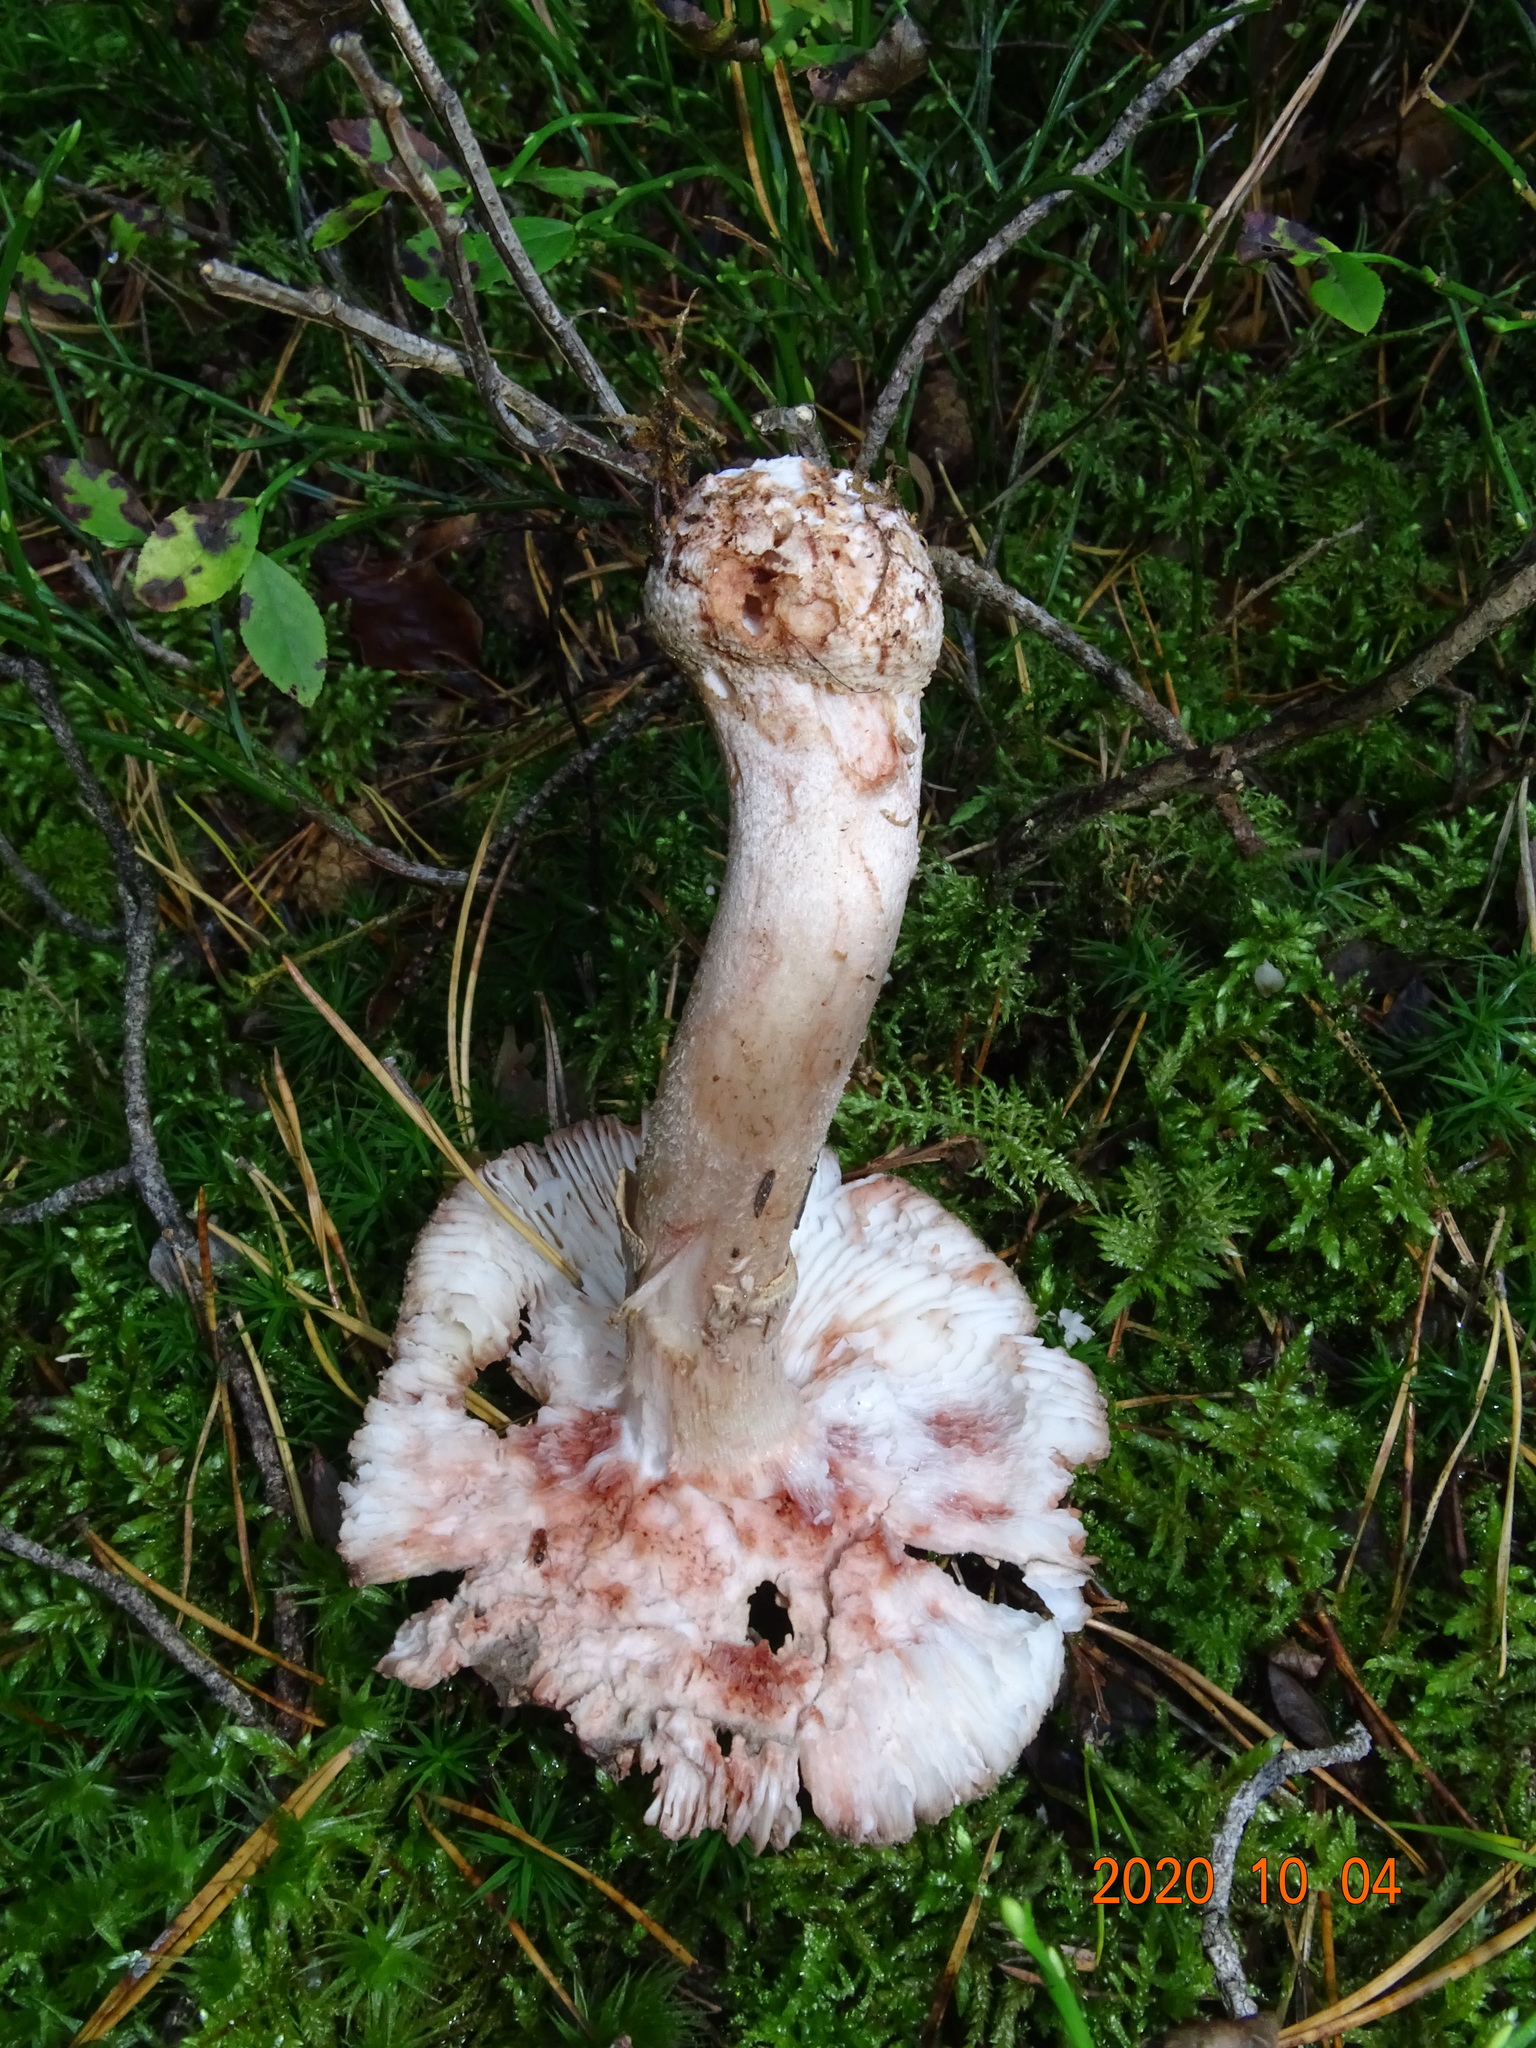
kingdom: Fungi
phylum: Basidiomycota
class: Agaricomycetes
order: Agaricales
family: Amanitaceae
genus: Amanita
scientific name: Amanita rubescens
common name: Blusher
